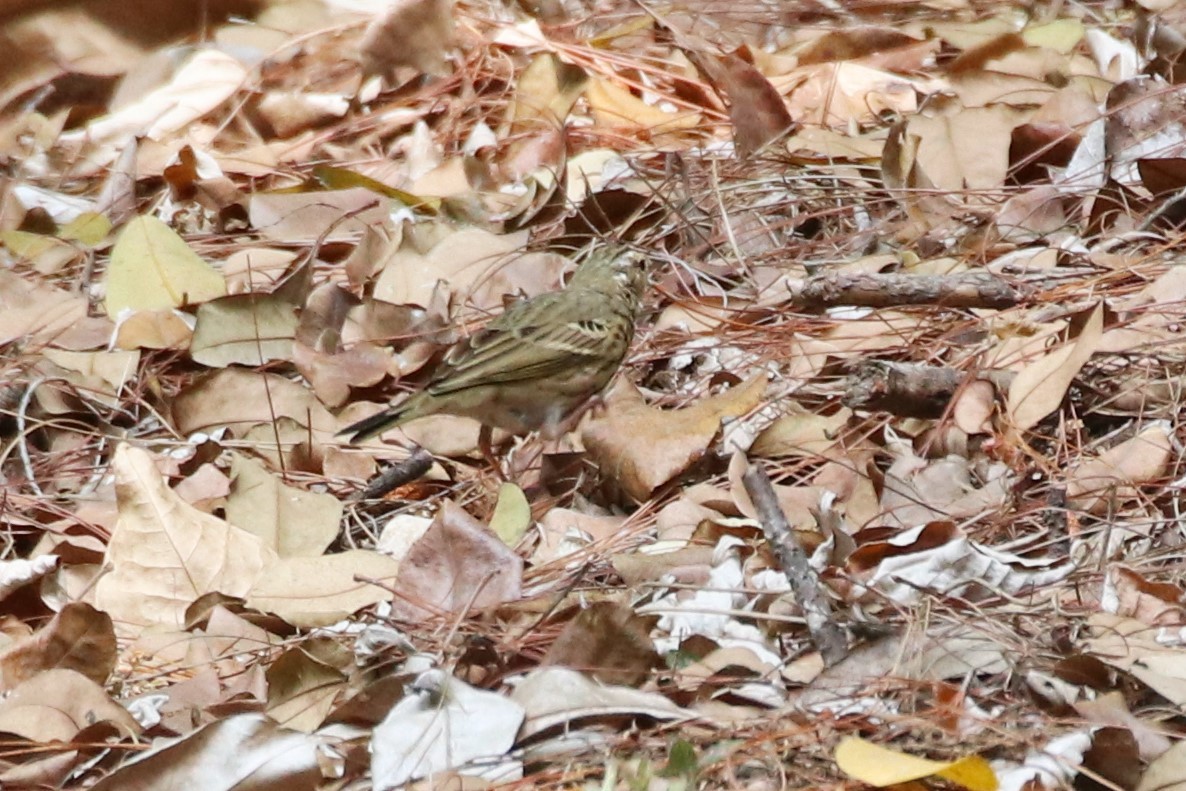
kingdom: Animalia
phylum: Chordata
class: Aves
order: Passeriformes
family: Motacillidae
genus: Anthus
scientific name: Anthus hodgsoni
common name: Olive-backed pipit
